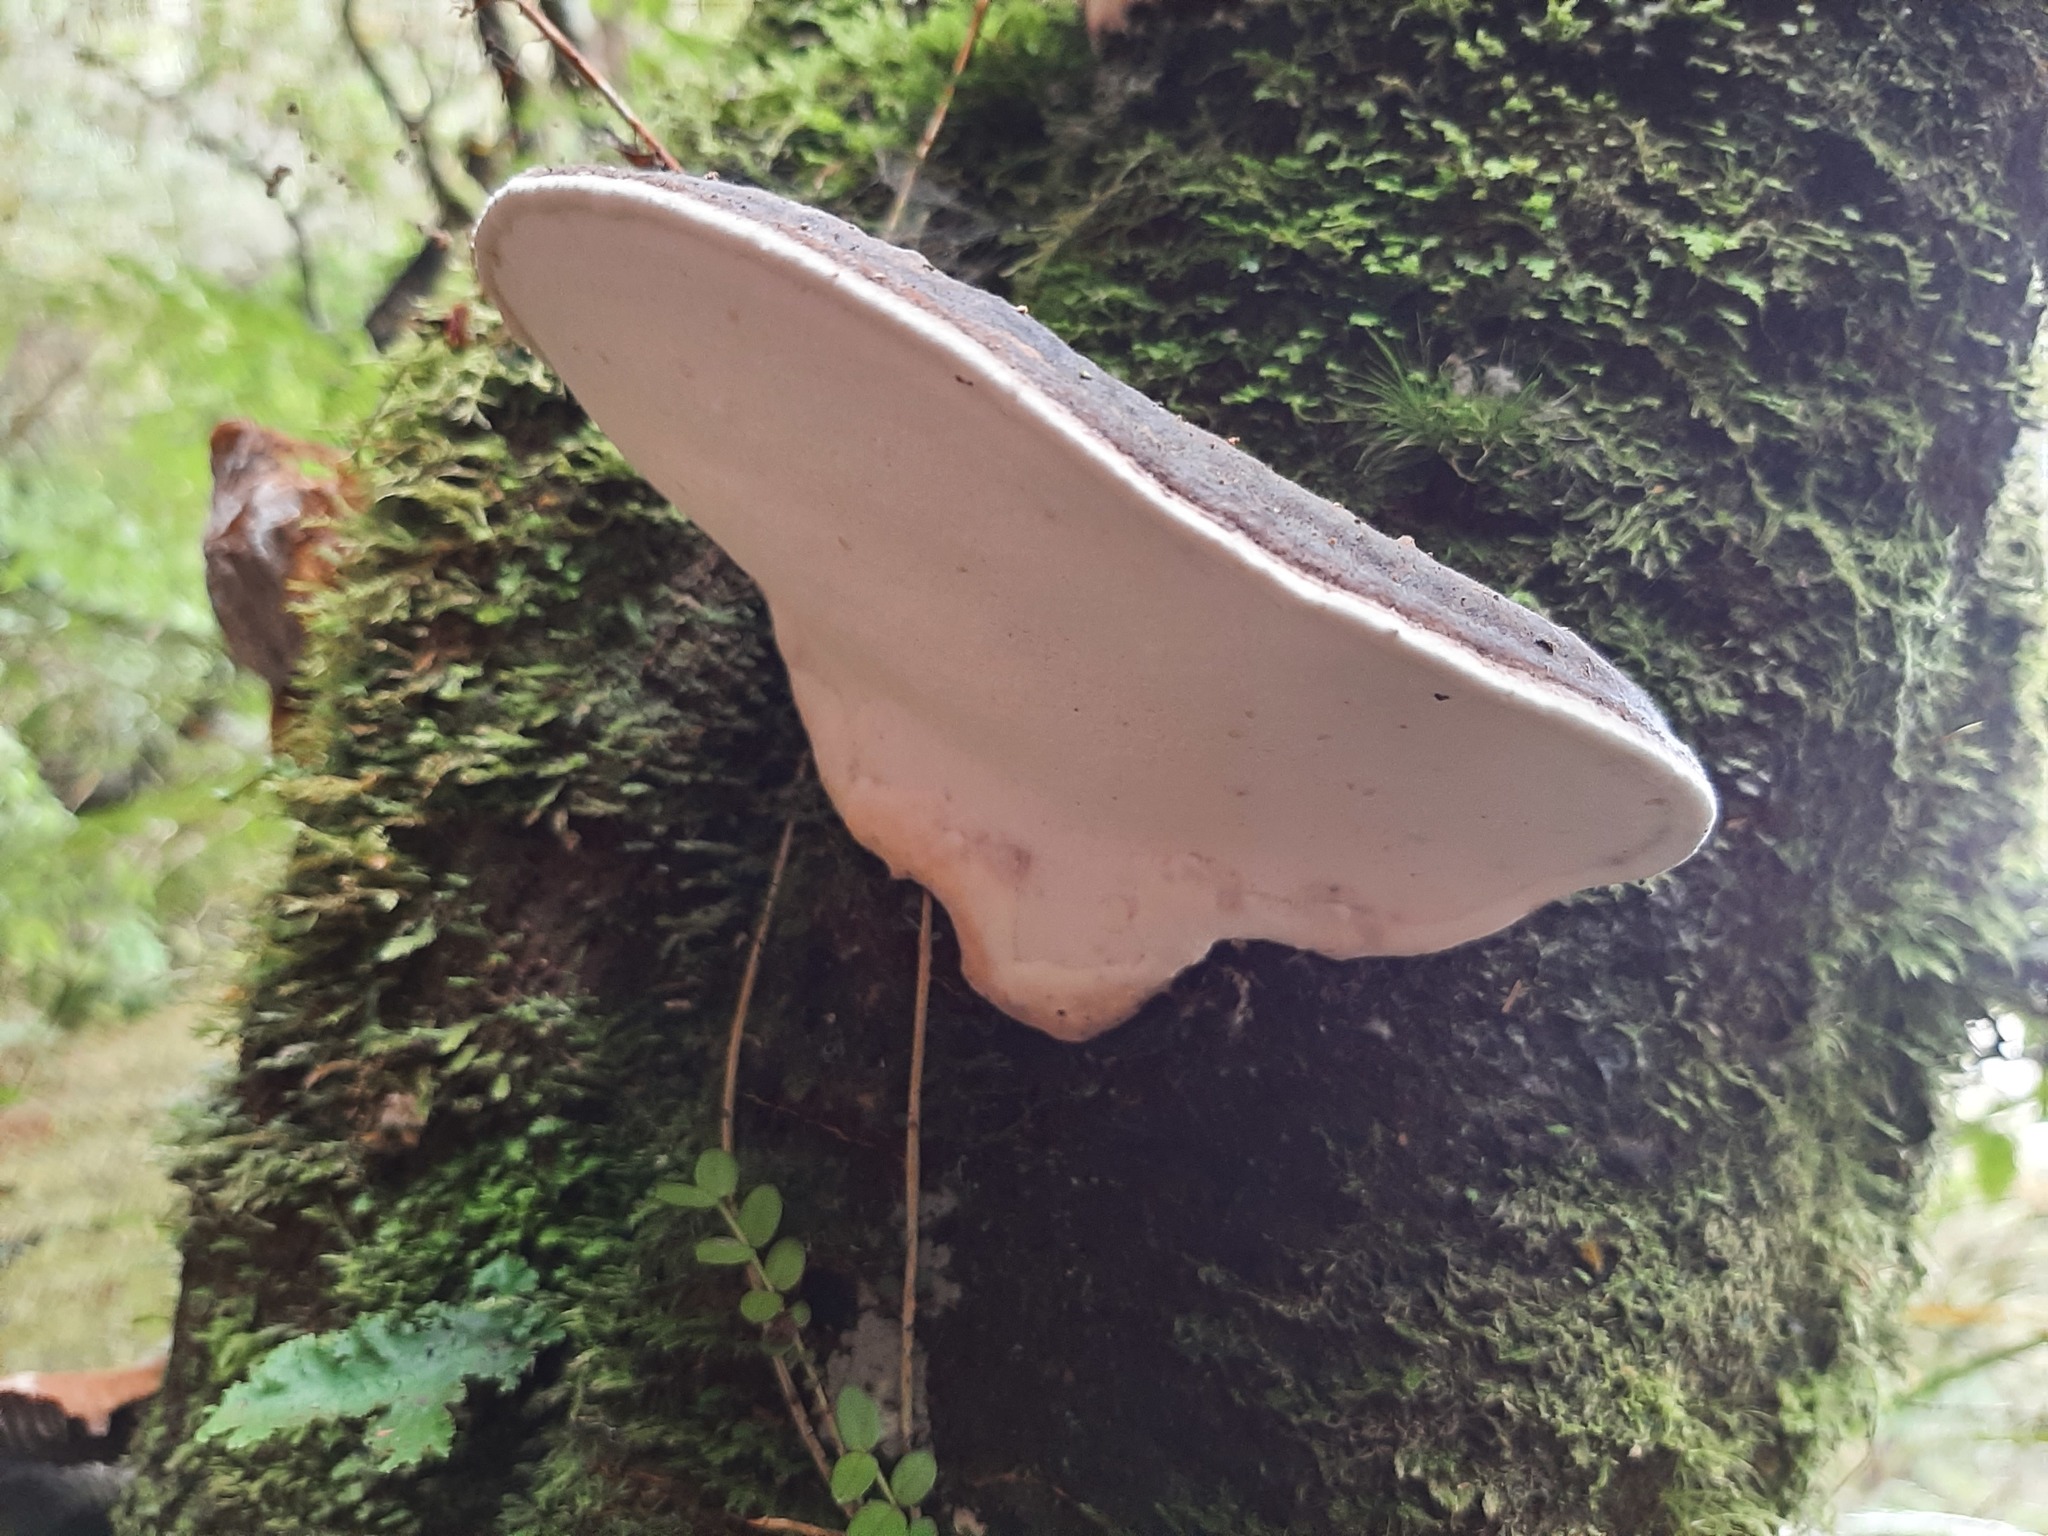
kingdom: Fungi
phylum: Basidiomycota
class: Agaricomycetes
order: Polyporales
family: Fomitopsidaceae
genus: Pilatoporus
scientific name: Pilatoporus hemitephrus
